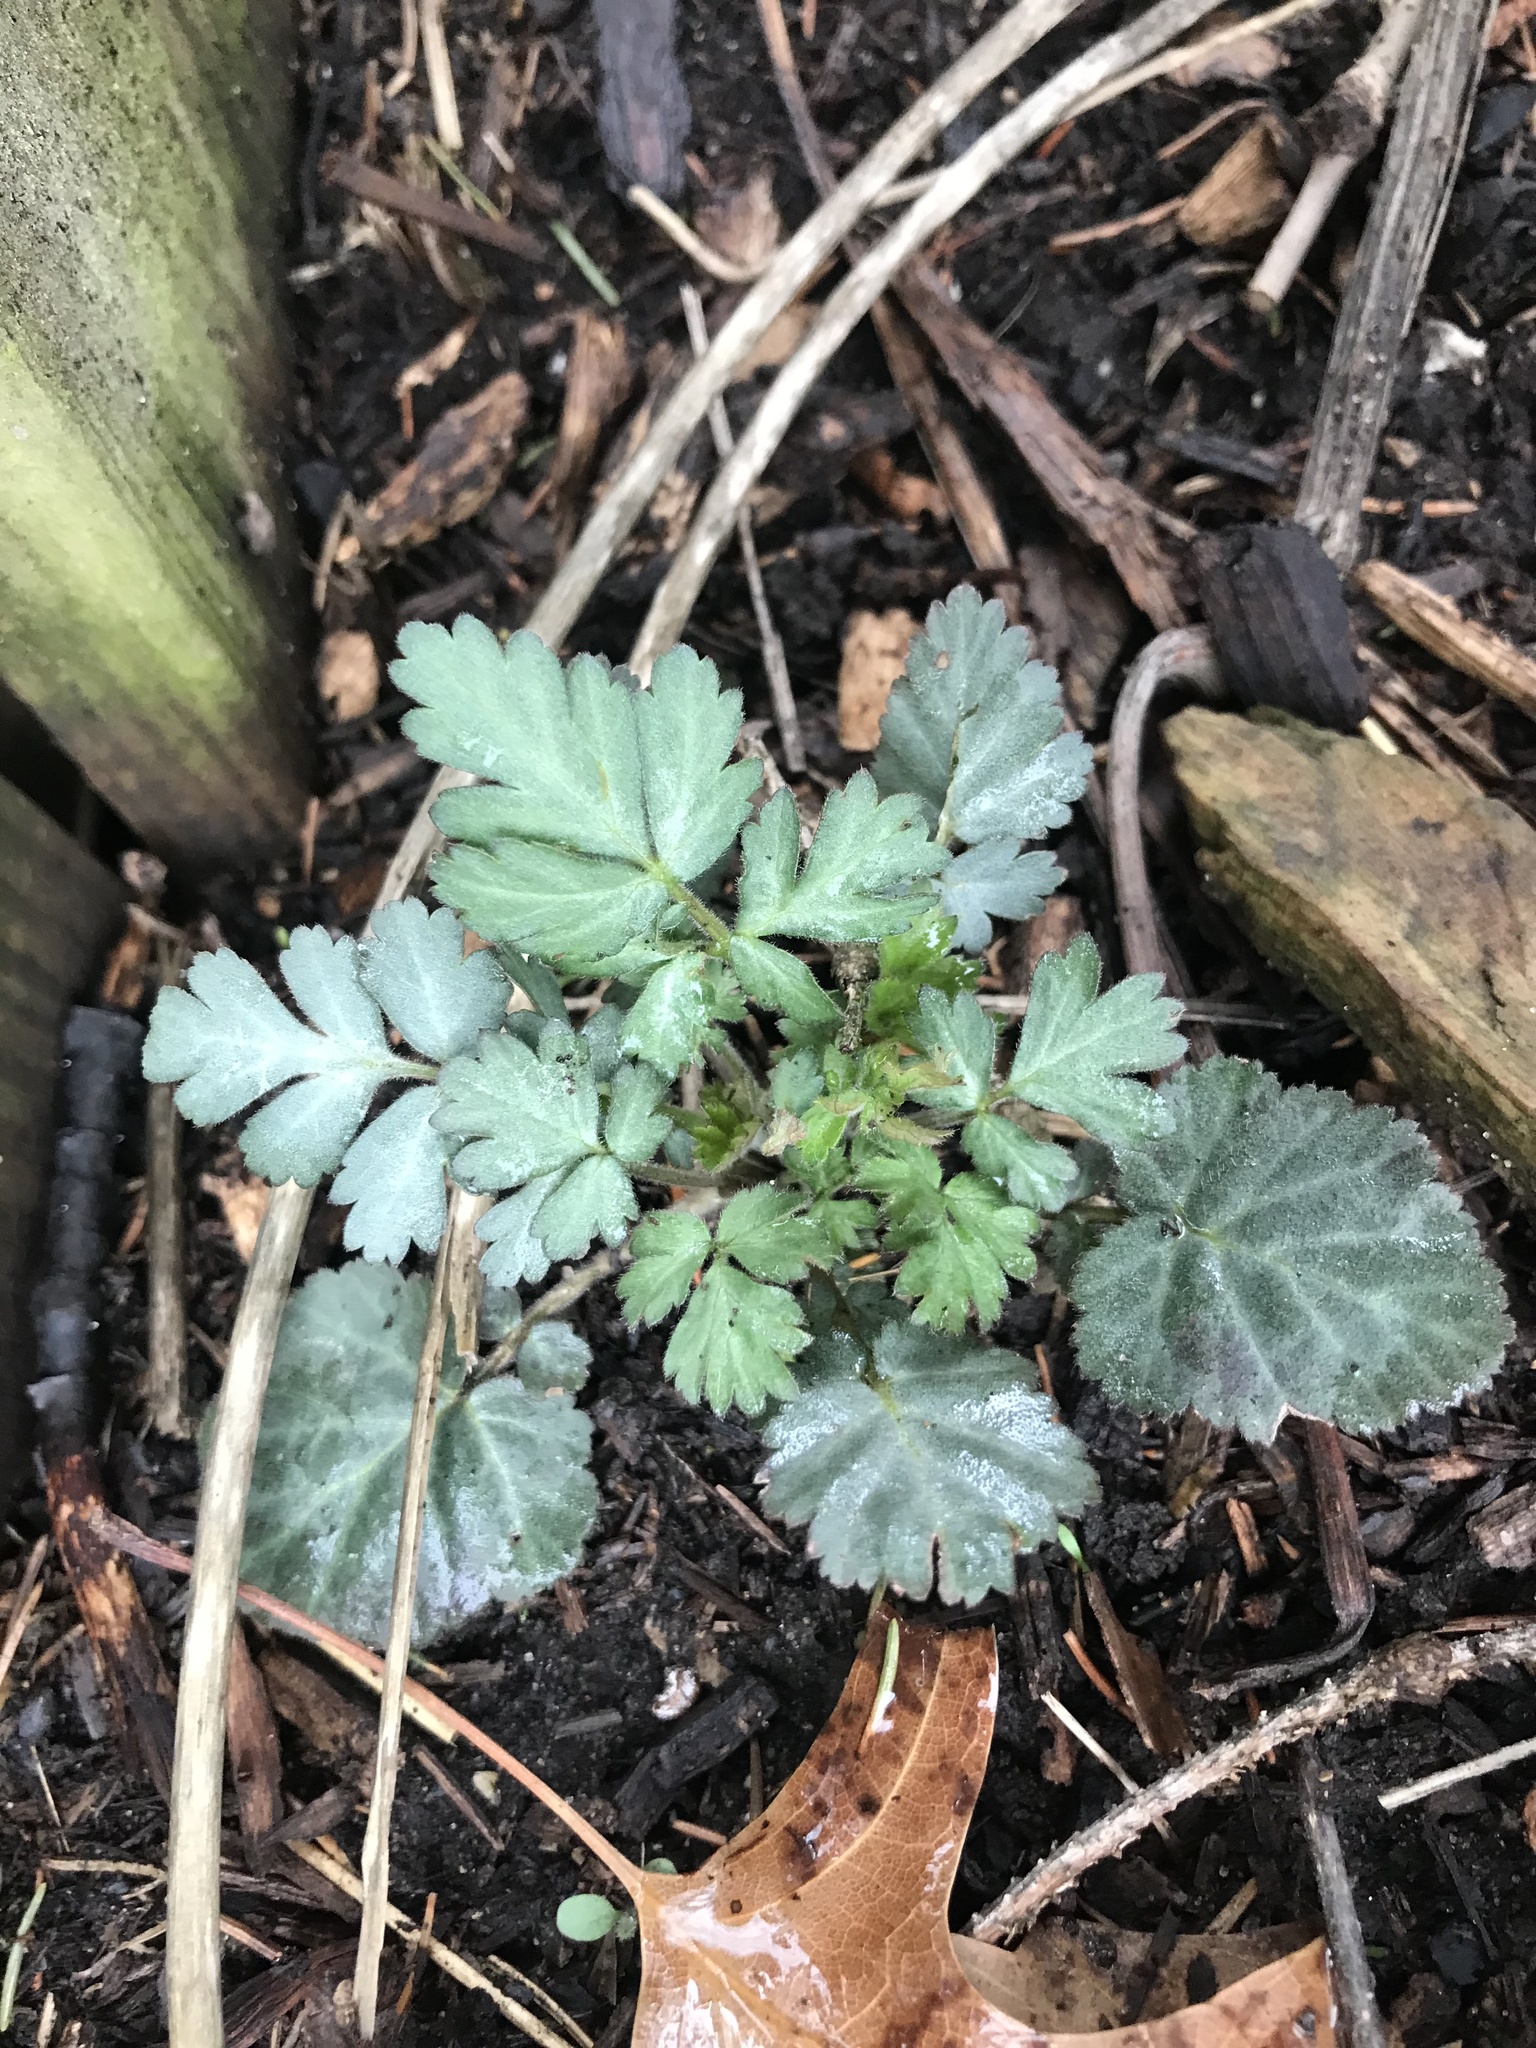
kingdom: Plantae
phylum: Tracheophyta
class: Magnoliopsida
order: Rosales
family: Rosaceae
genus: Geum
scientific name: Geum canadense
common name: White avens
